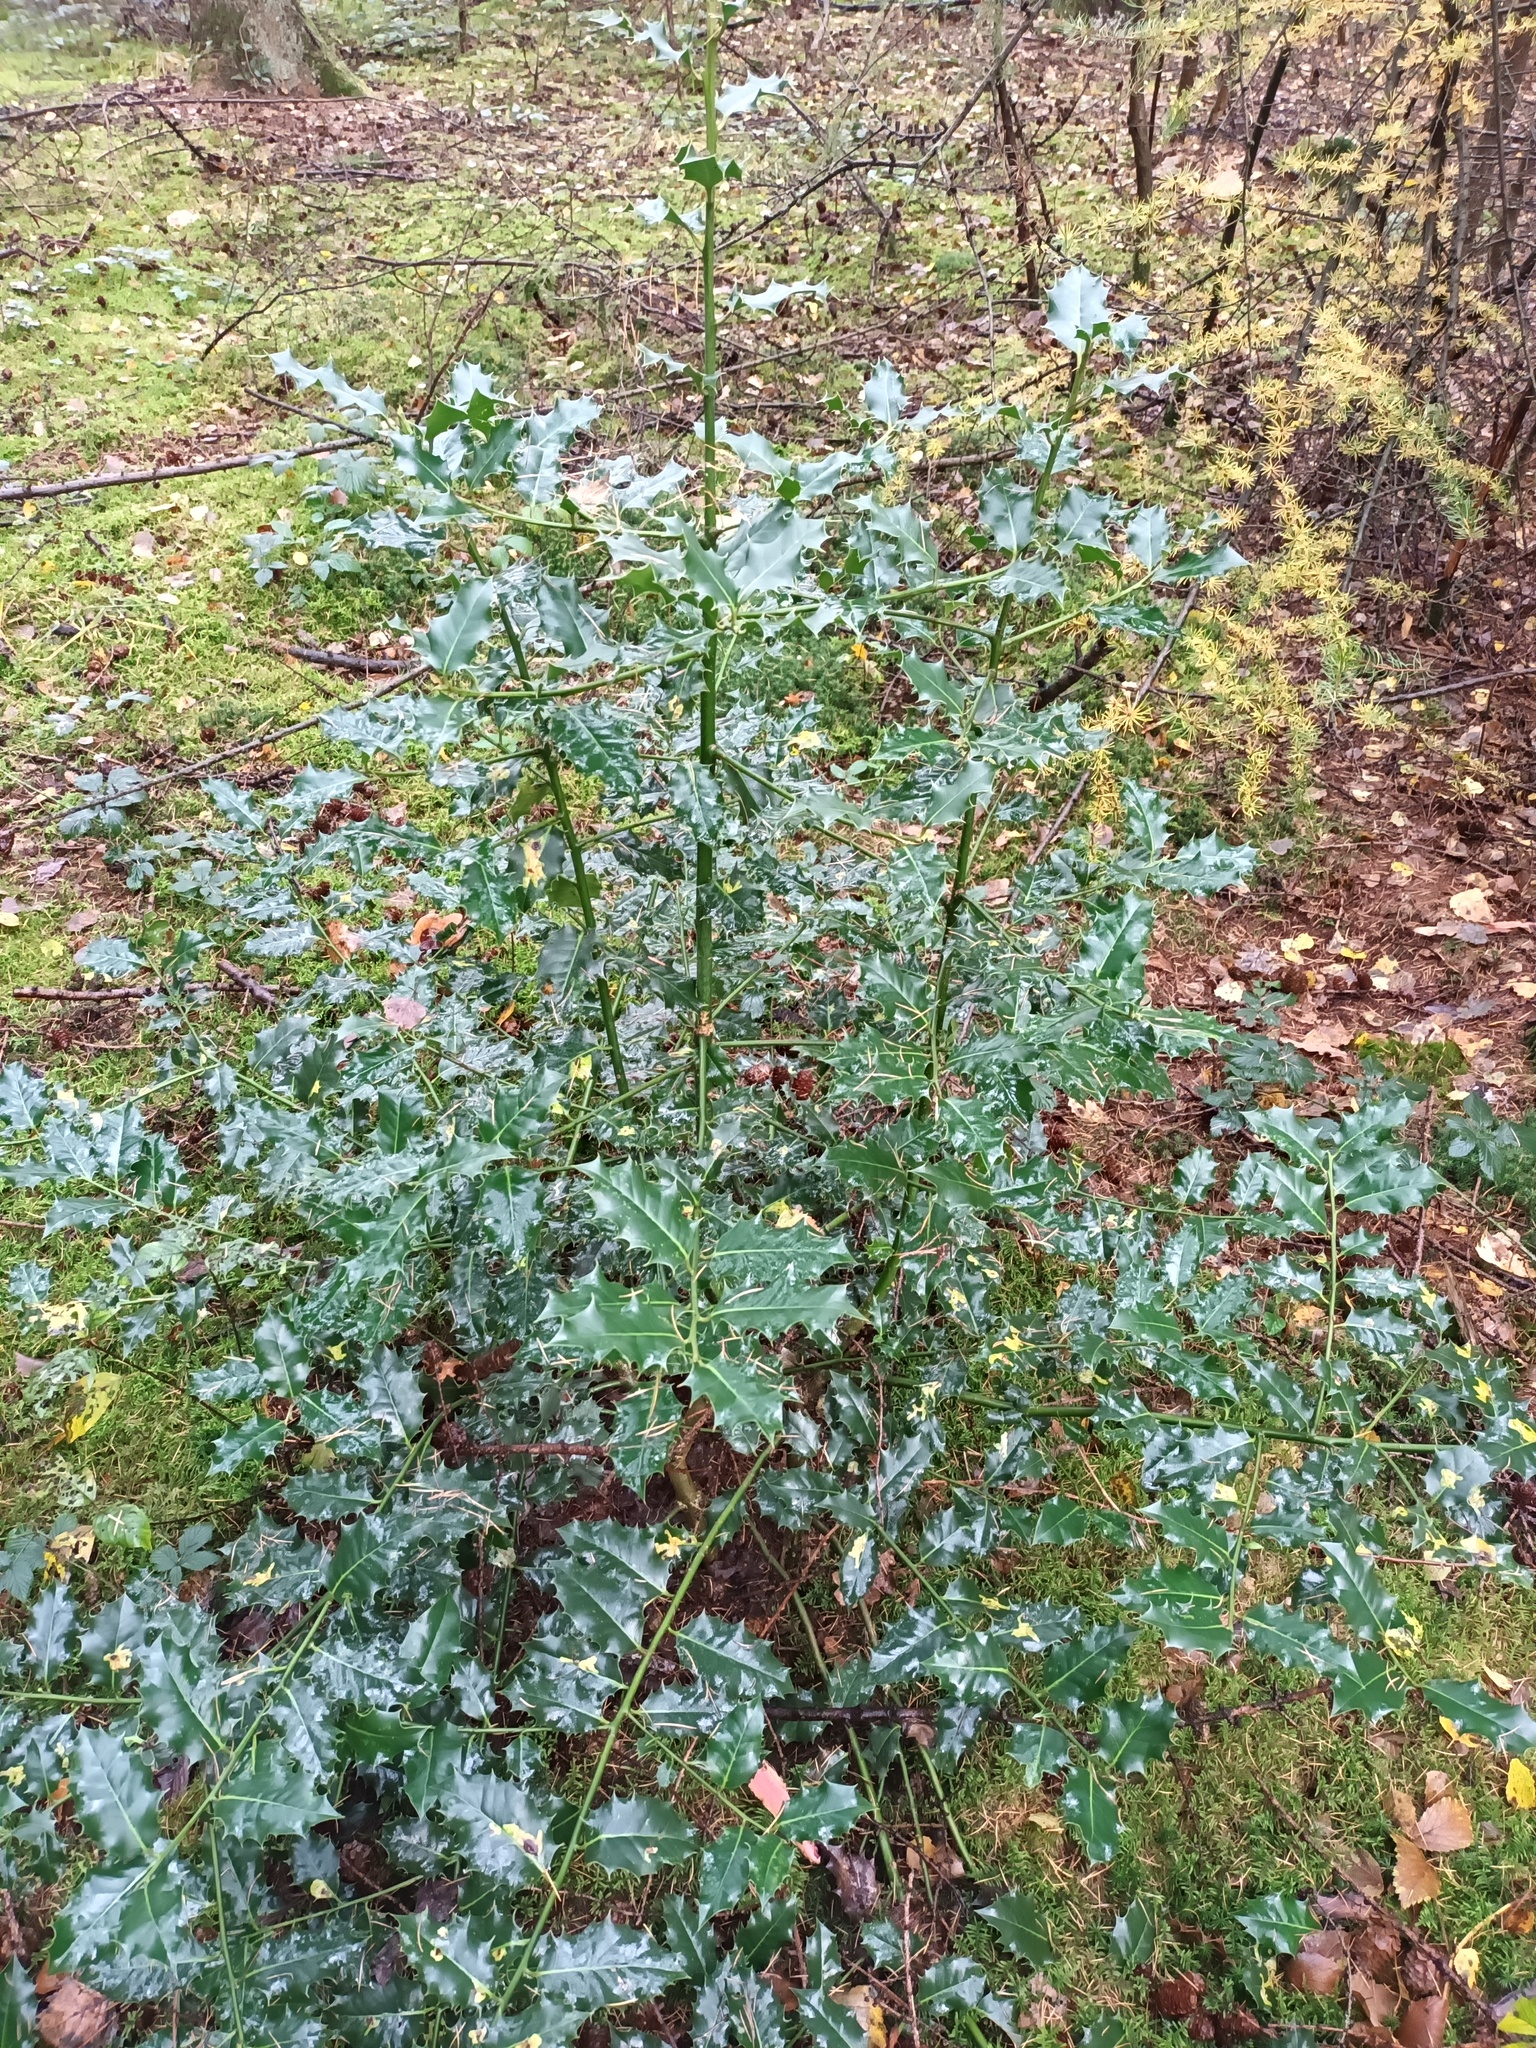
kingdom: Plantae
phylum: Tracheophyta
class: Magnoliopsida
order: Aquifoliales
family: Aquifoliaceae
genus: Ilex
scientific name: Ilex aquifolium
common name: English holly
